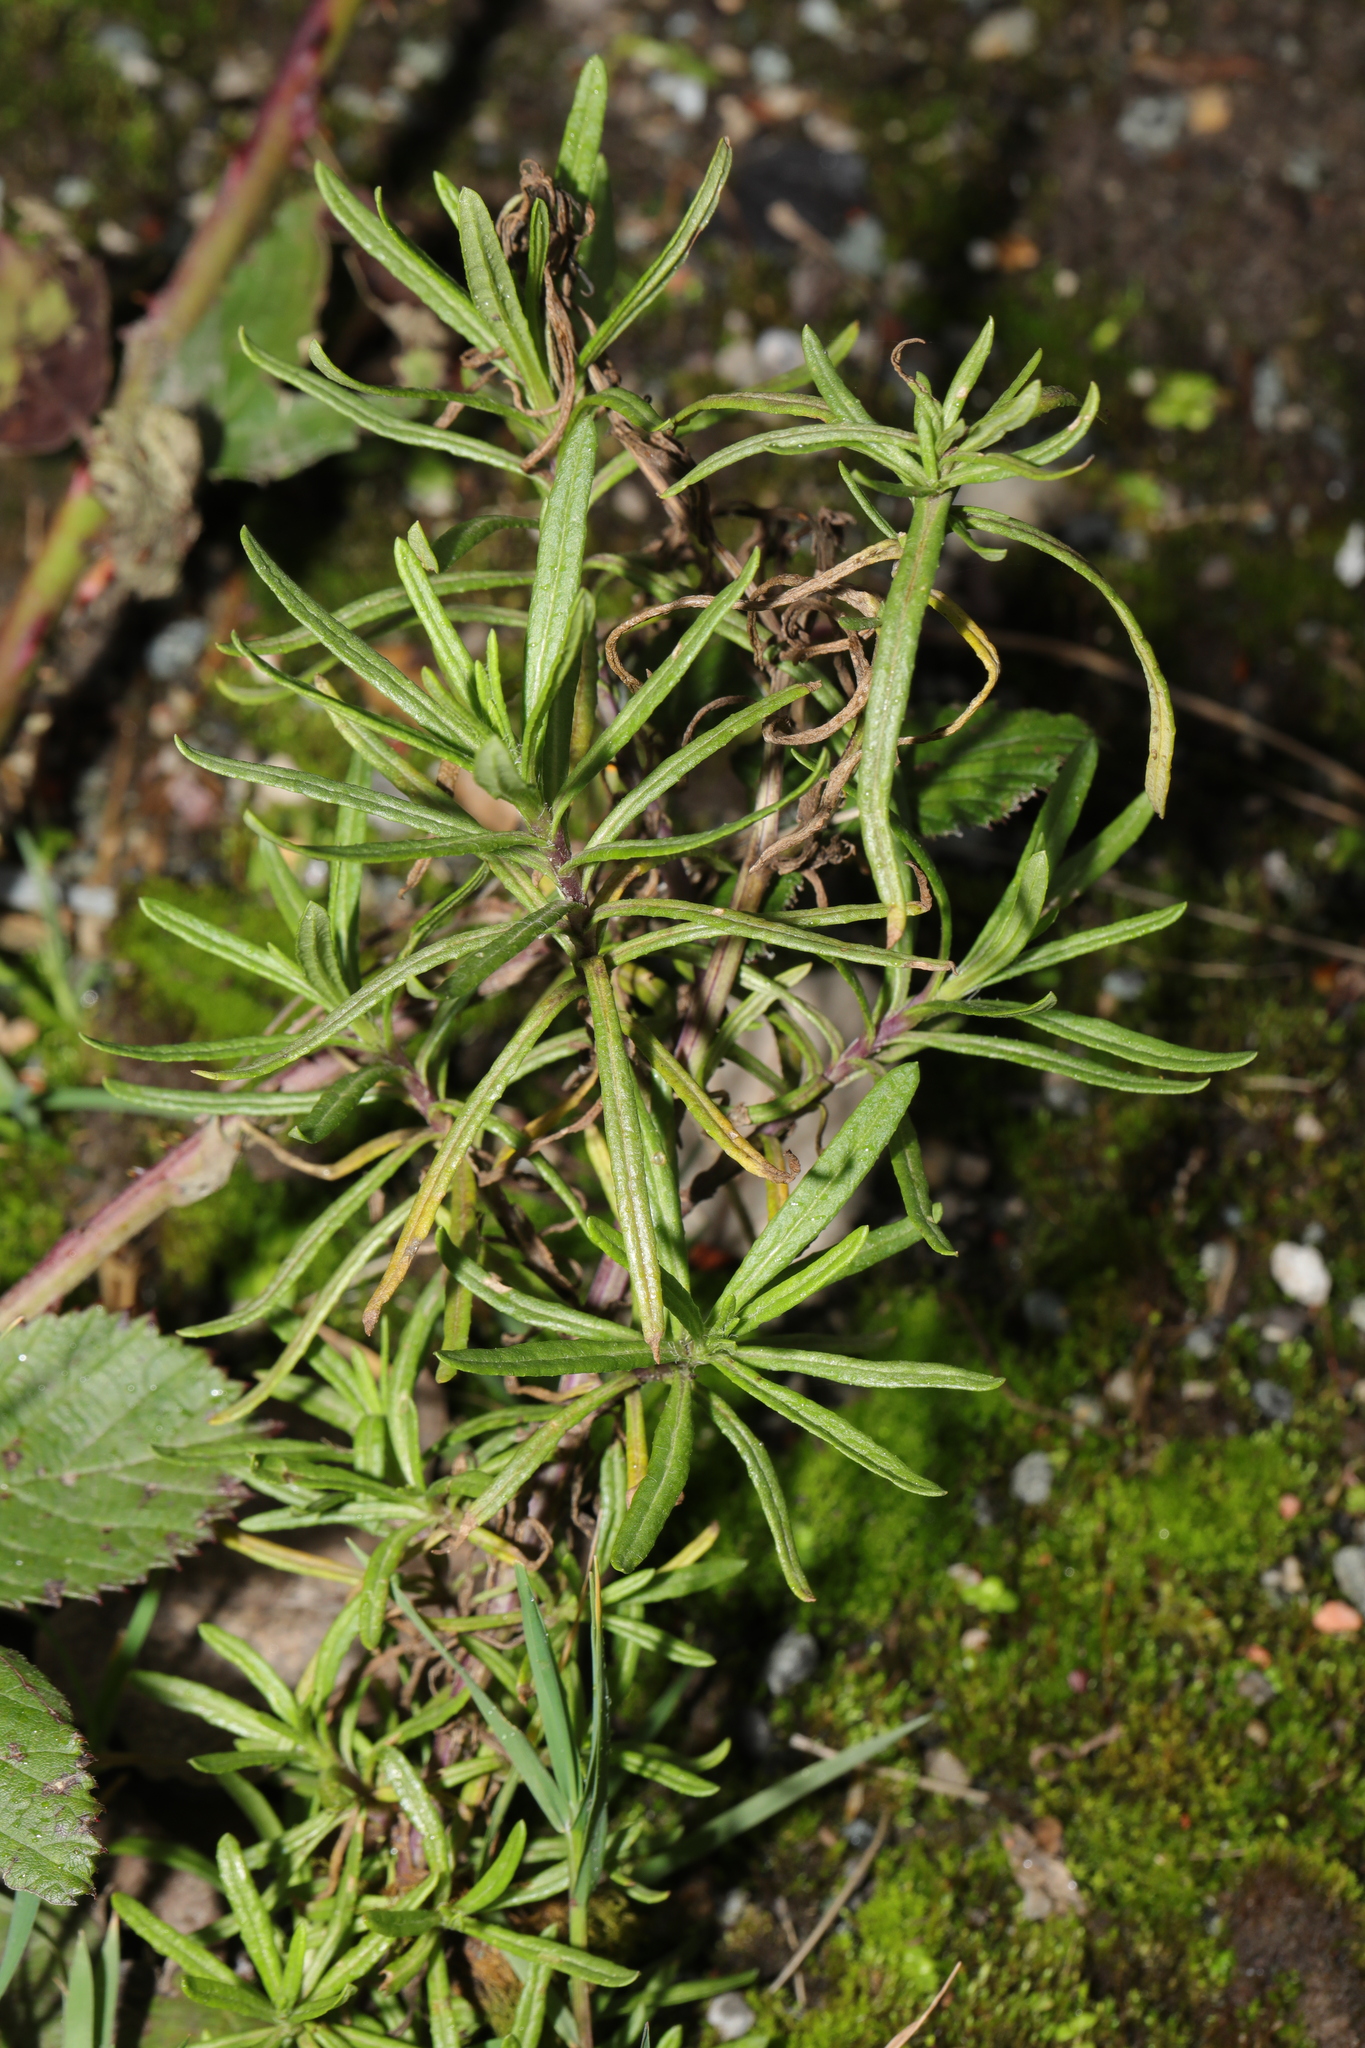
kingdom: Plantae
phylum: Tracheophyta
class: Magnoliopsida
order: Asterales
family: Asteraceae
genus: Senecio
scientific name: Senecio inaequidens
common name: Narrow-leaved ragwort
